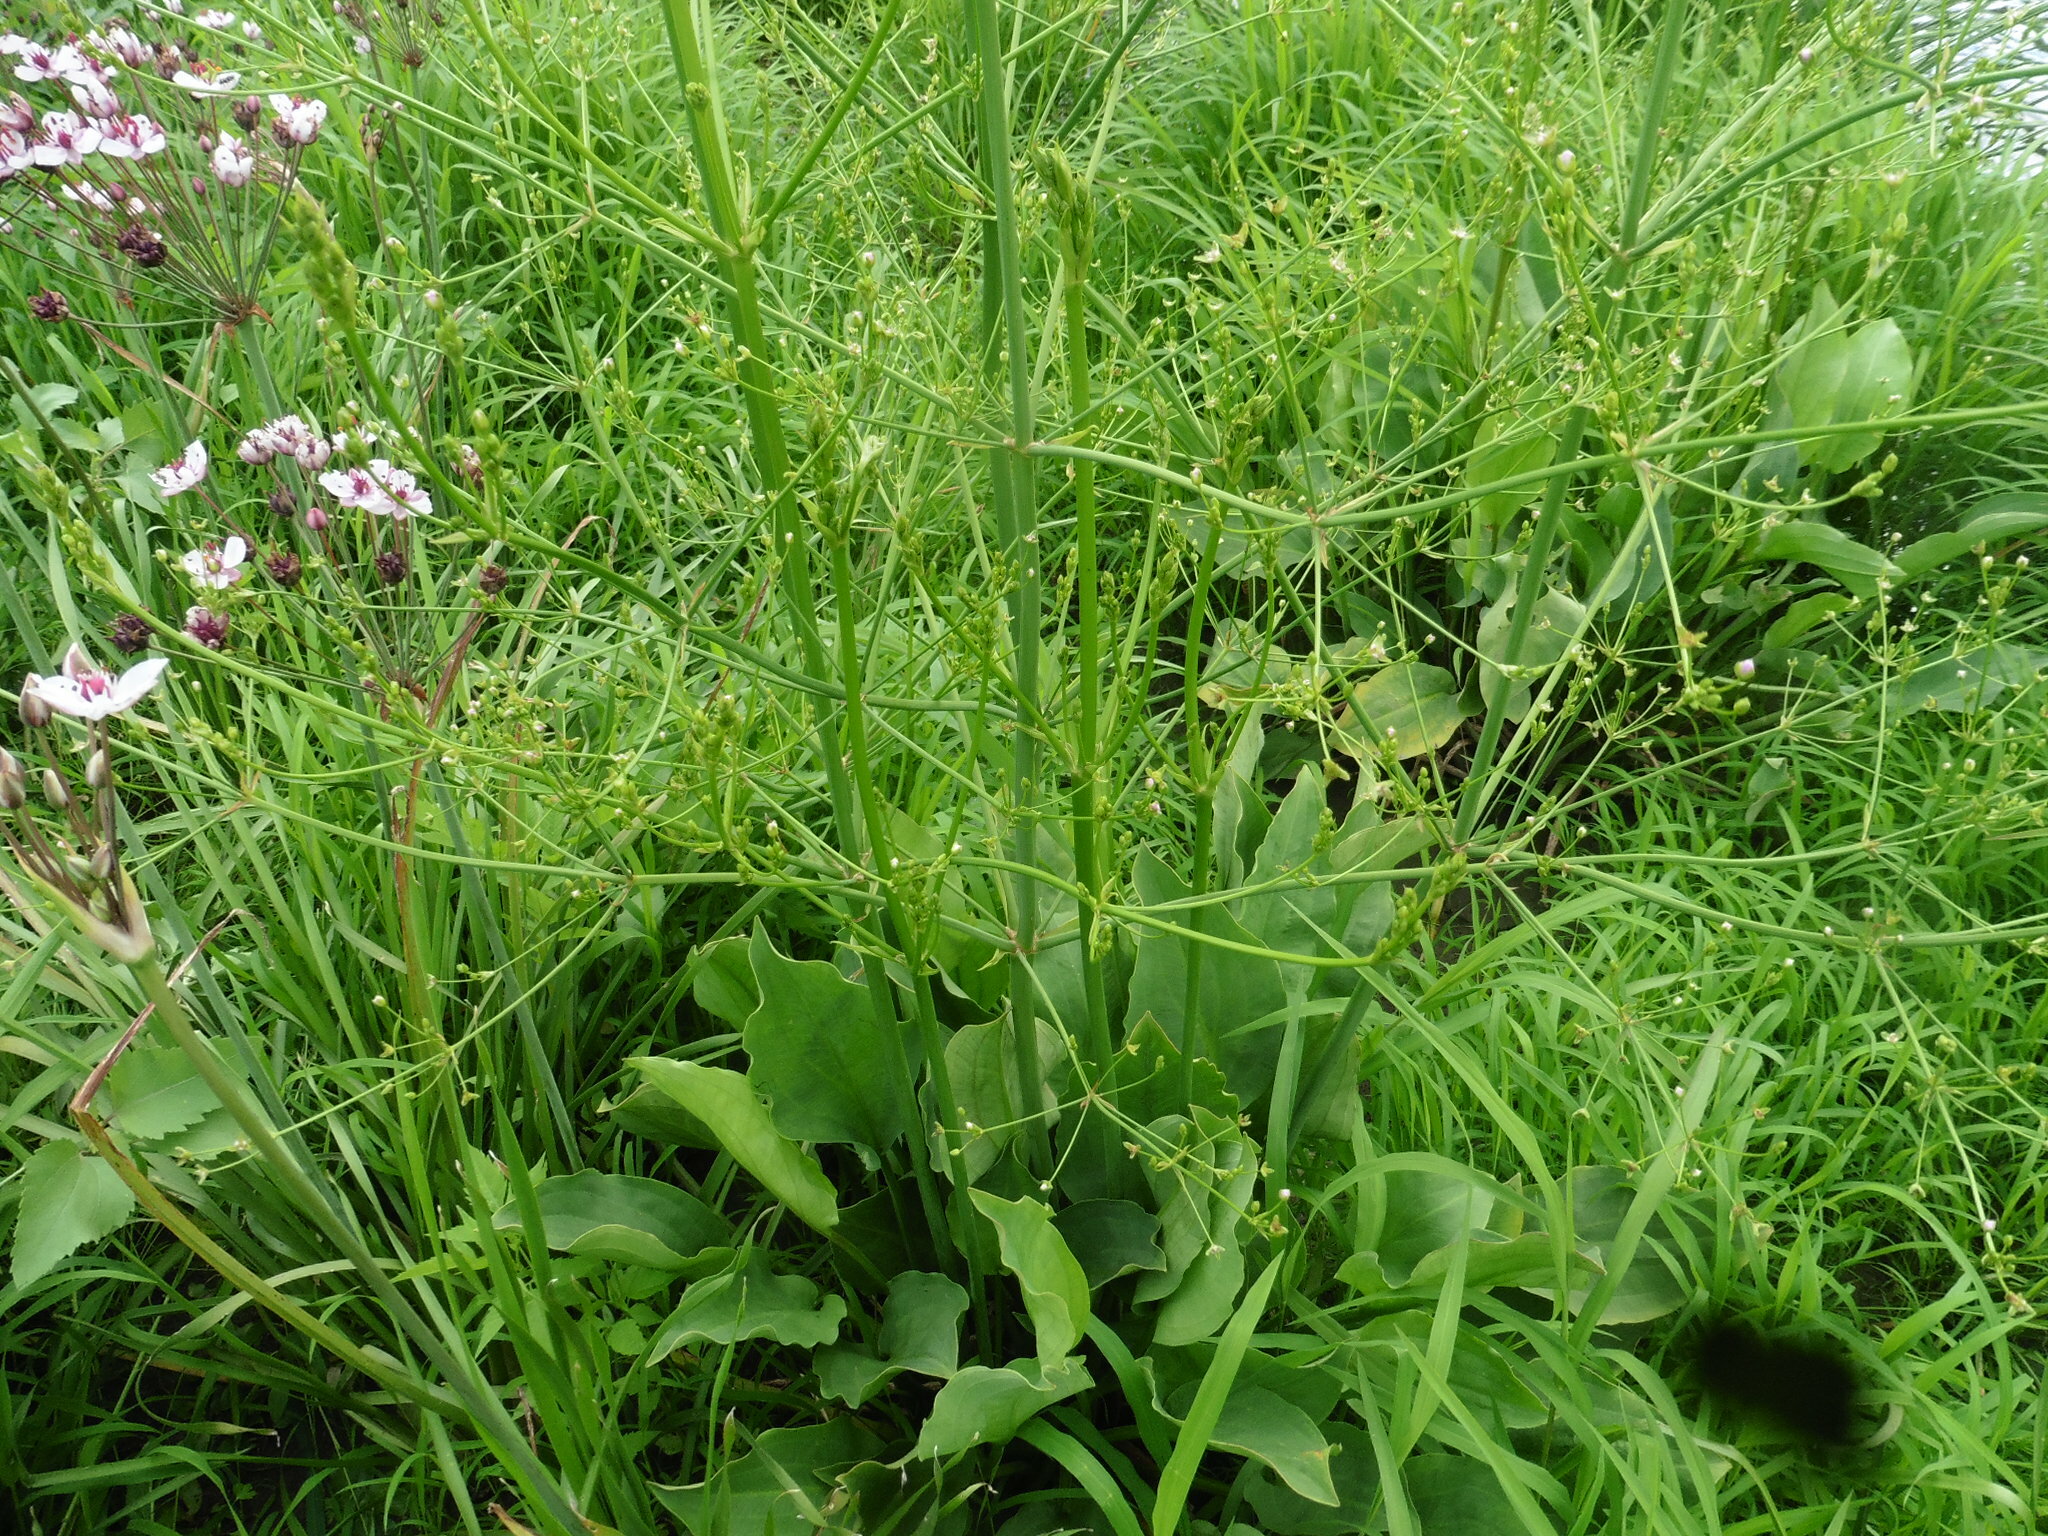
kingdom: Plantae
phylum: Tracheophyta
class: Liliopsida
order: Alismatales
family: Alismataceae
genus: Alisma
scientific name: Alisma plantago-aquatica
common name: Water-plantain
